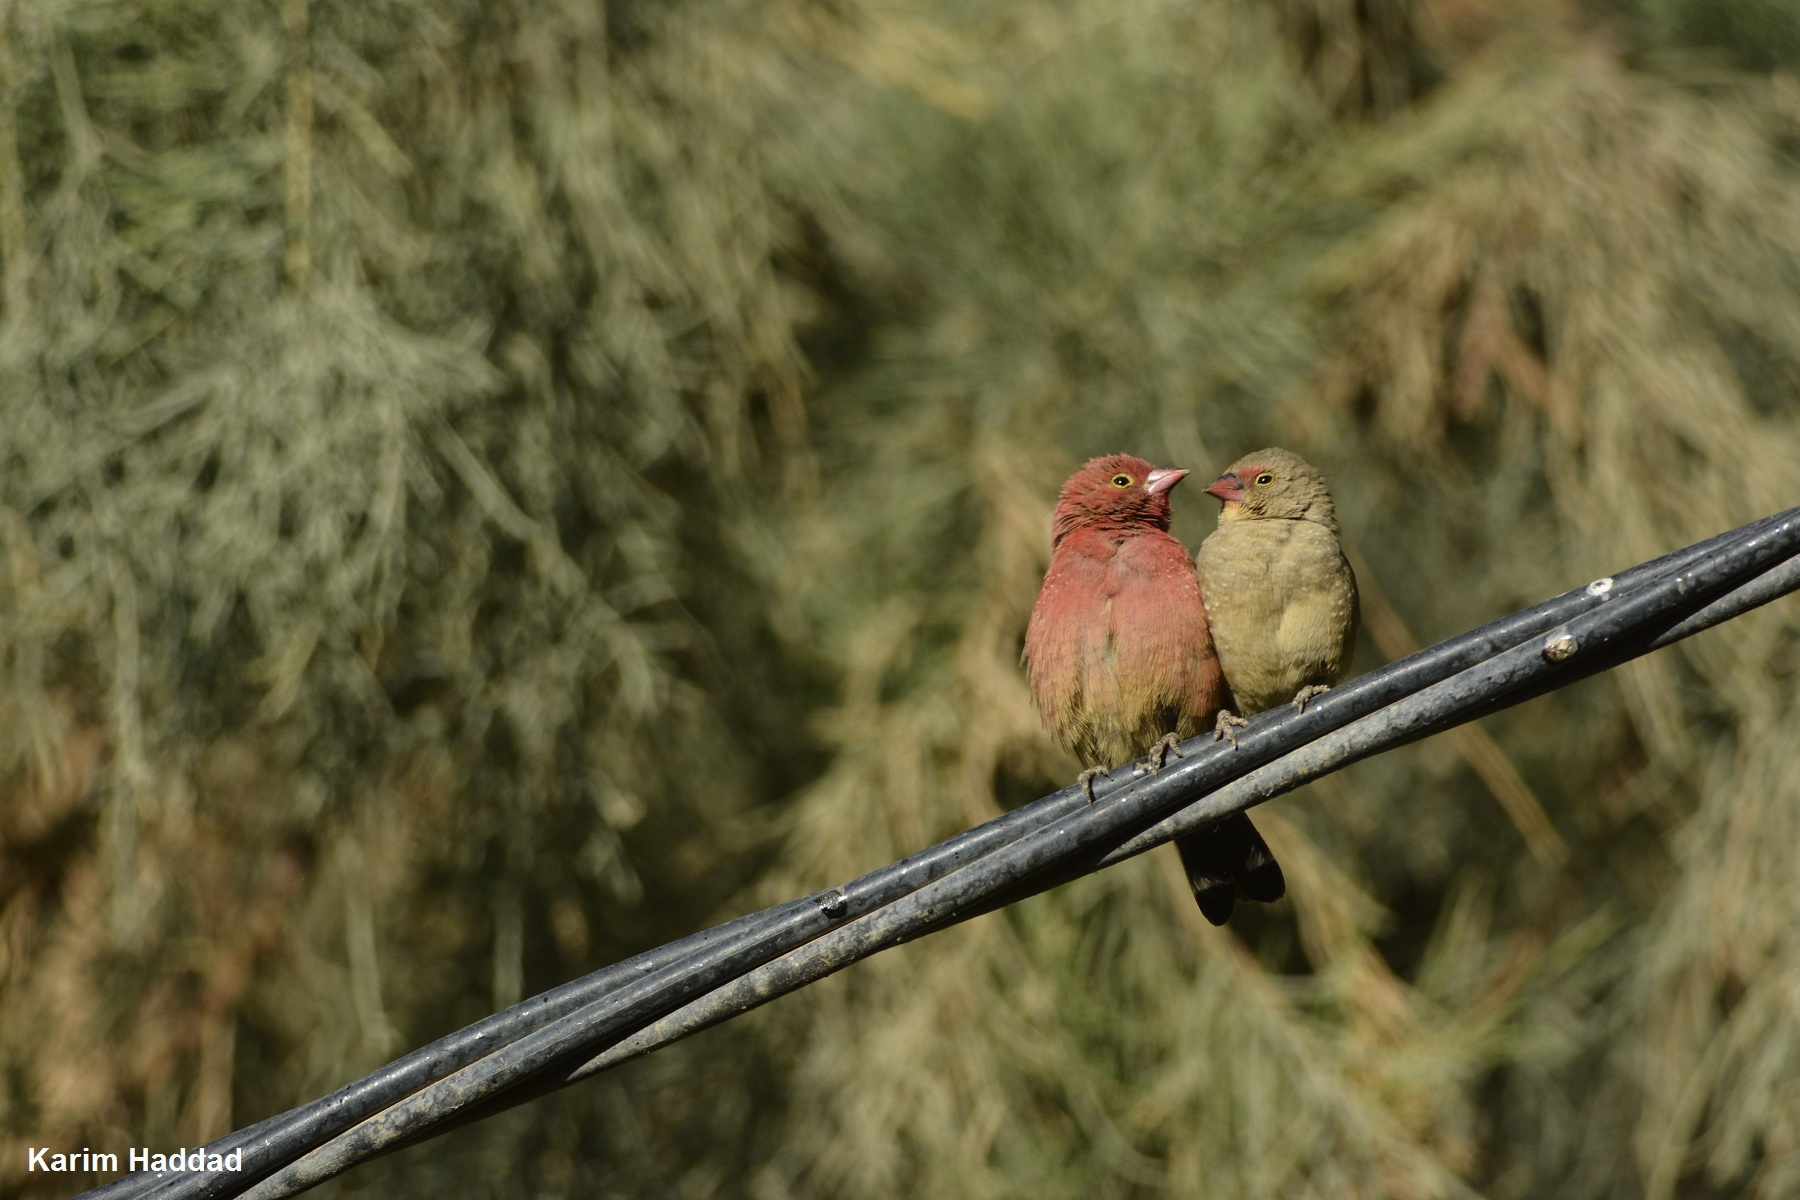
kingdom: Animalia
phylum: Chordata
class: Aves
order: Passeriformes
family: Estrildidae
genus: Lagonosticta
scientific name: Lagonosticta senegala
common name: Red-billed firefinch
